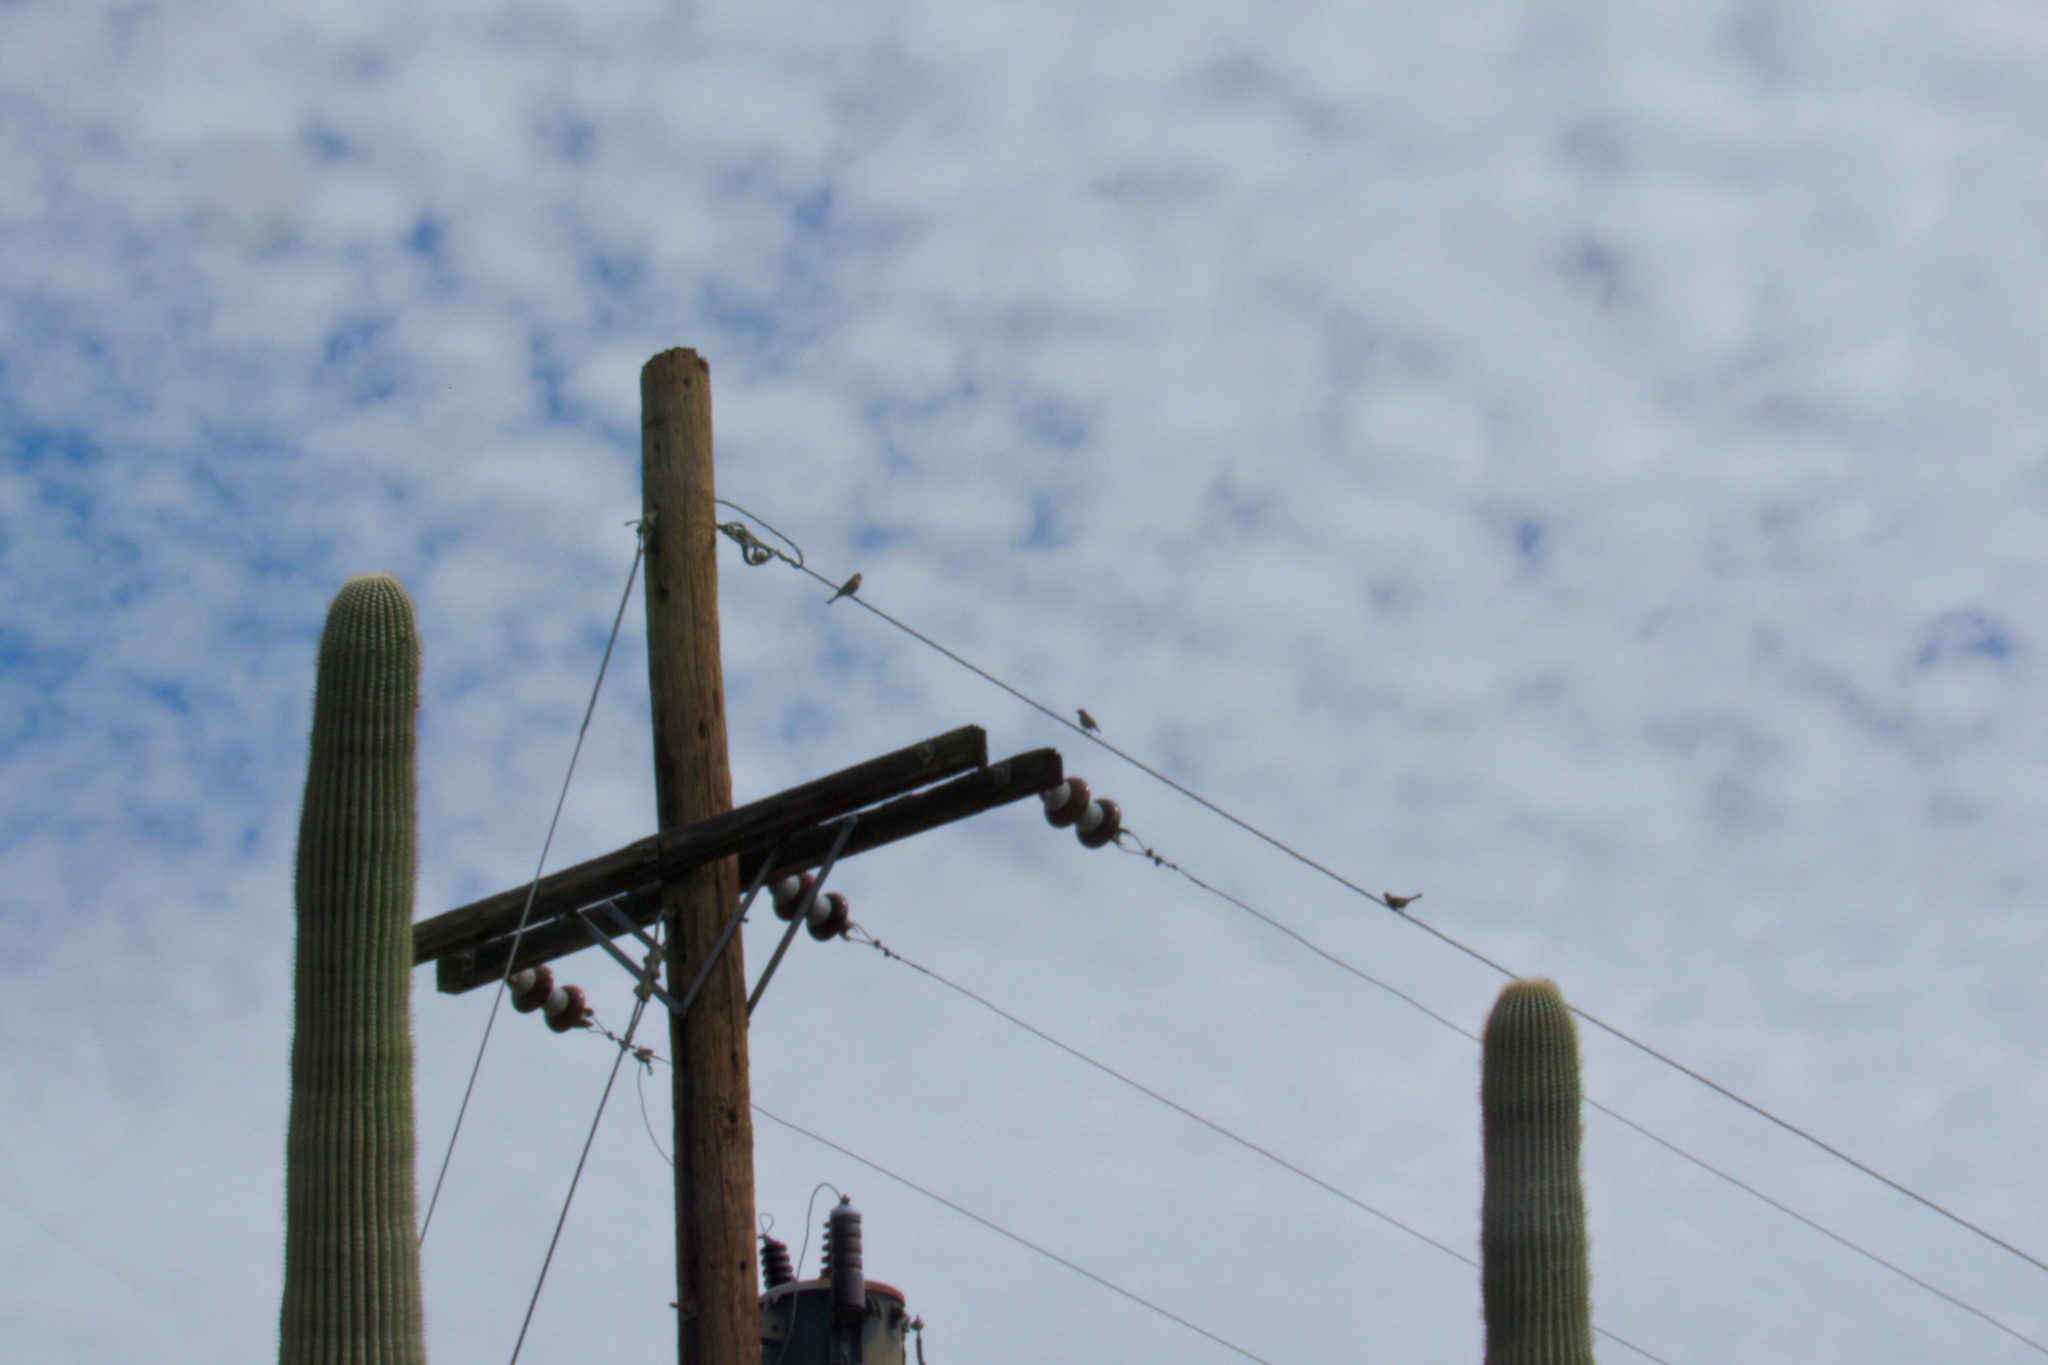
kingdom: Animalia
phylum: Chordata
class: Aves
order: Passeriformes
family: Fringillidae
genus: Haemorhous
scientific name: Haemorhous mexicanus
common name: House finch
